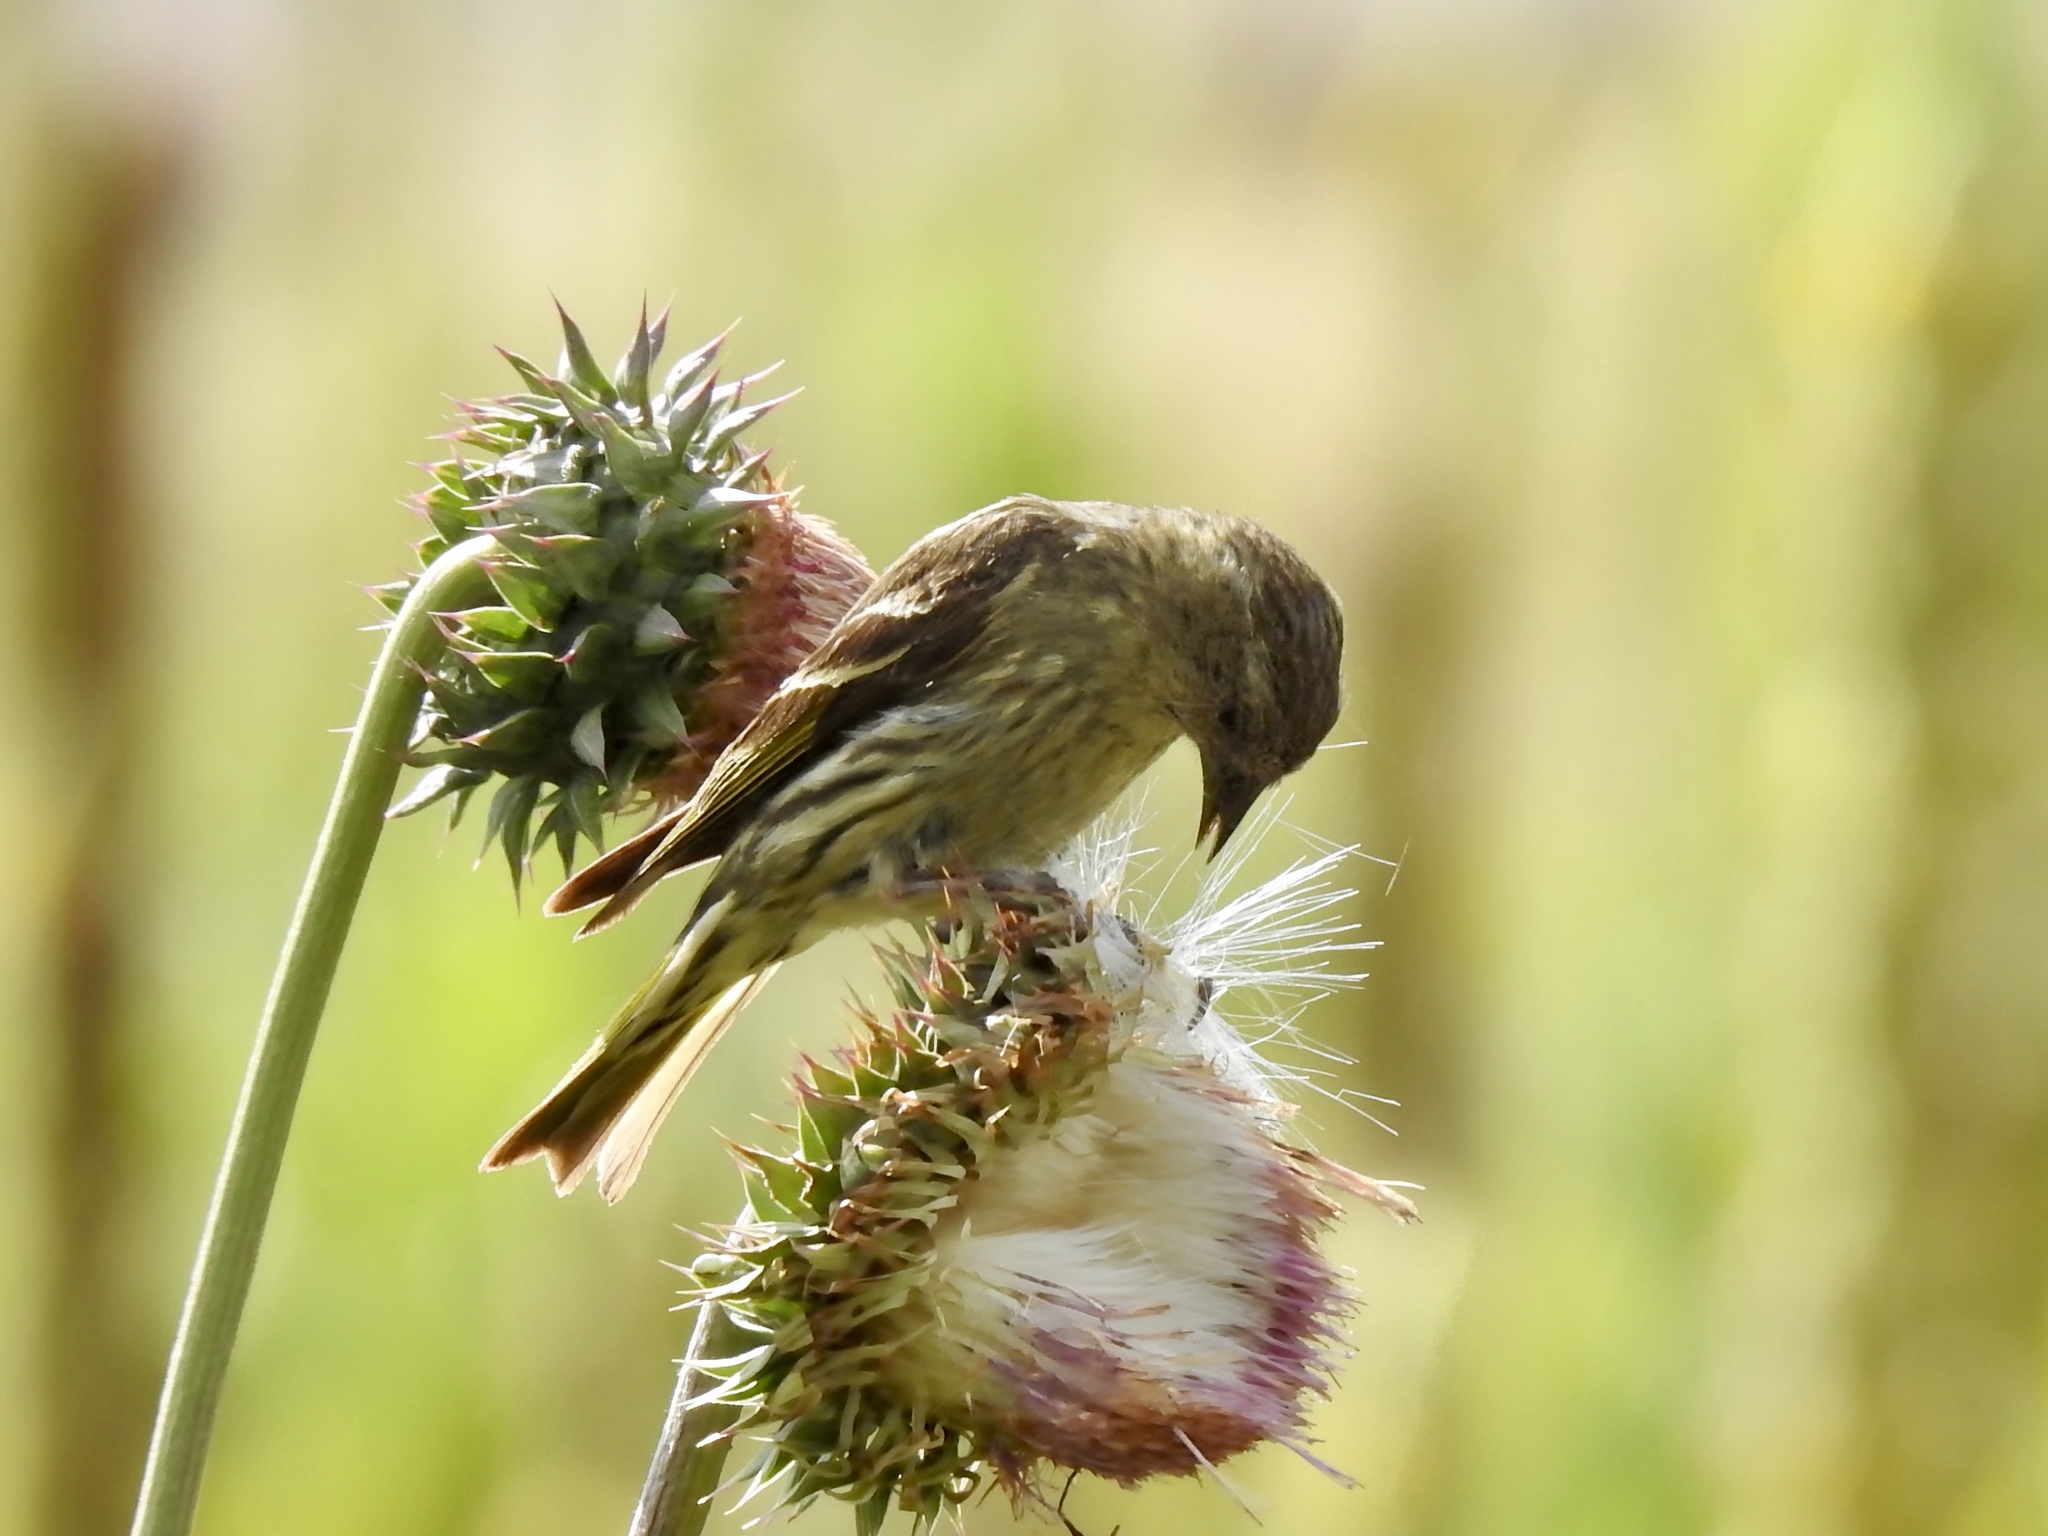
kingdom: Animalia
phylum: Chordata
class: Aves
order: Passeriformes
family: Fringillidae
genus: Spinus
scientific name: Spinus pinus
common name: Pine siskin
